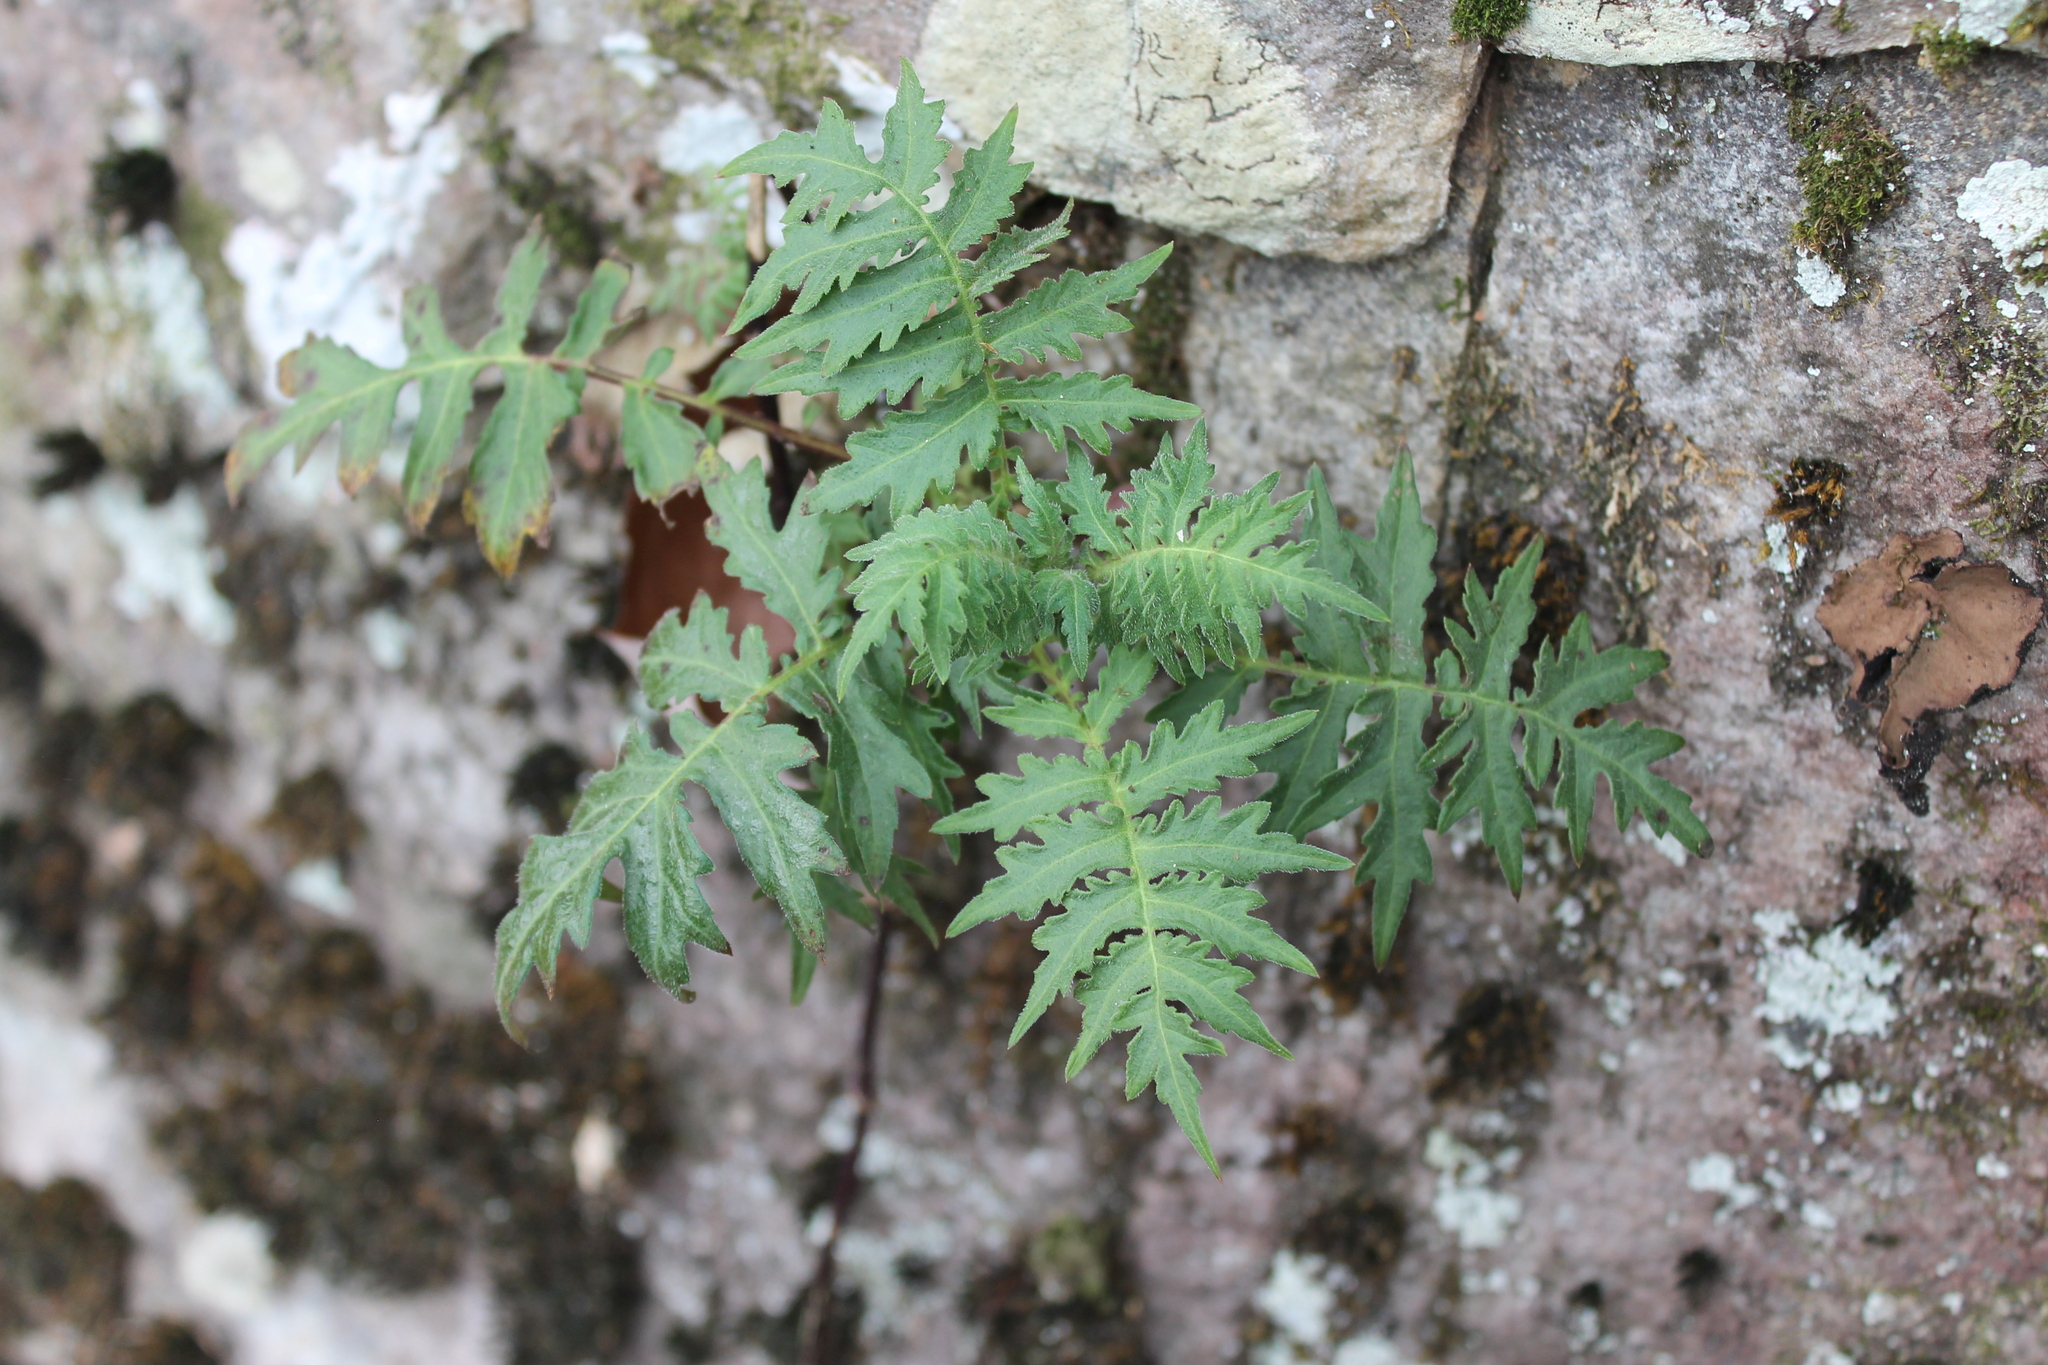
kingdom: Plantae
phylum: Tracheophyta
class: Magnoliopsida
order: Asterales
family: Asteraceae
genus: Polymnia
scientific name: Polymnia canadensis
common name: Pale-flowered leafcup
